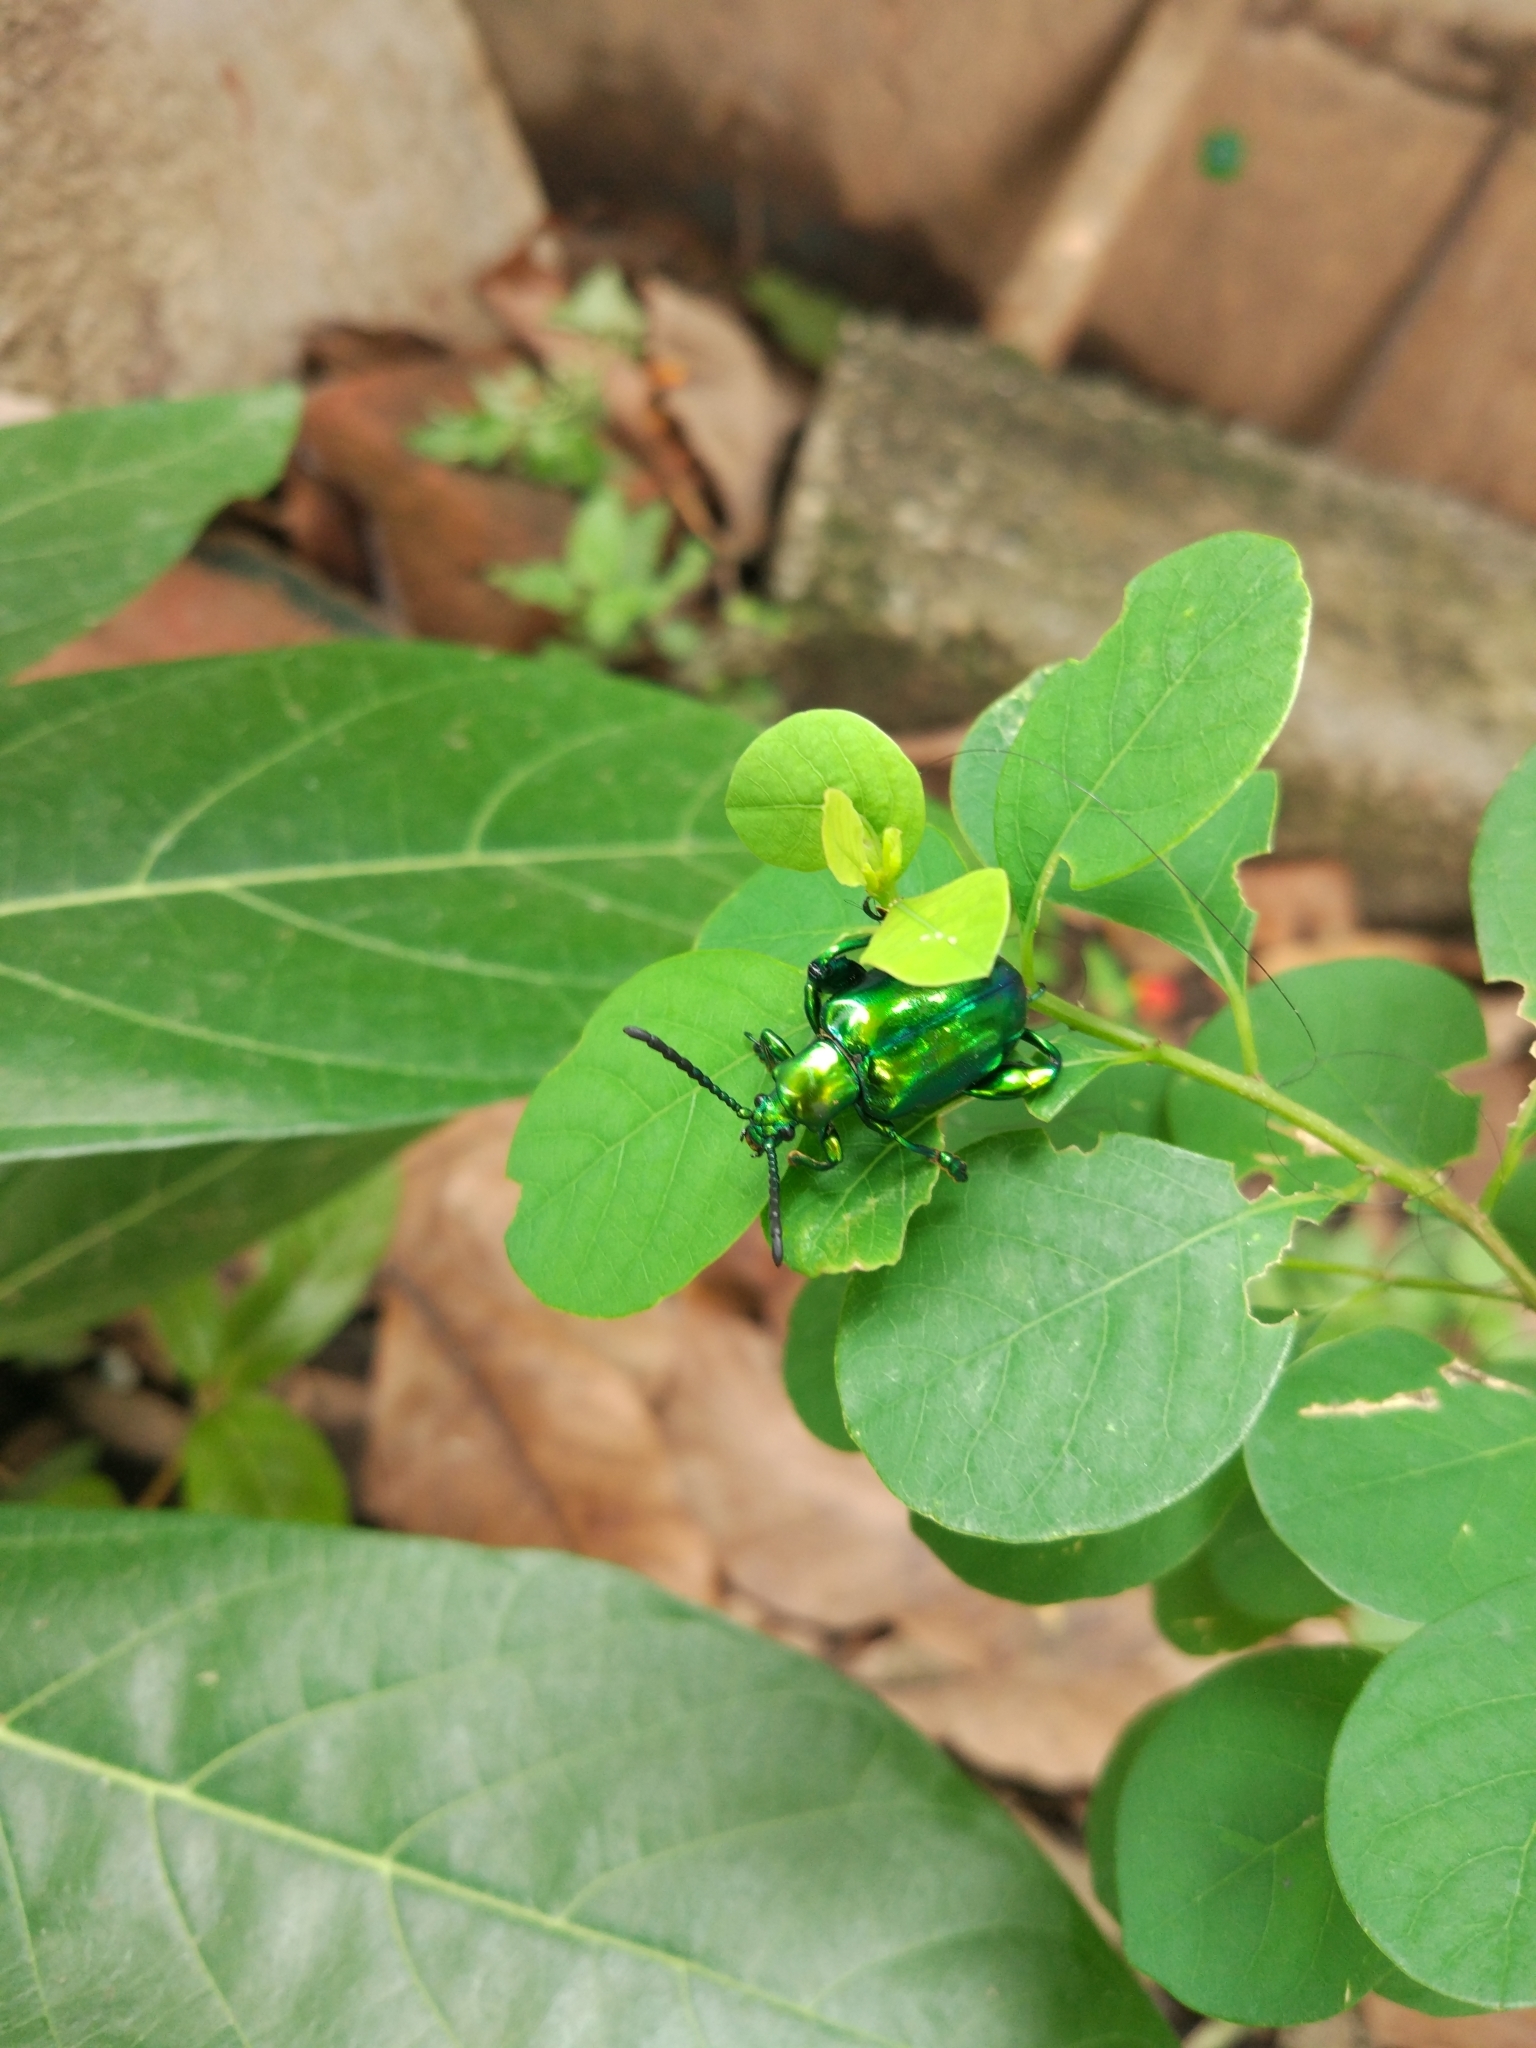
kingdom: Animalia
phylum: Arthropoda
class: Insecta
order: Coleoptera
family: Chrysomelidae
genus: Sagra
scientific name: Sagra femorata
